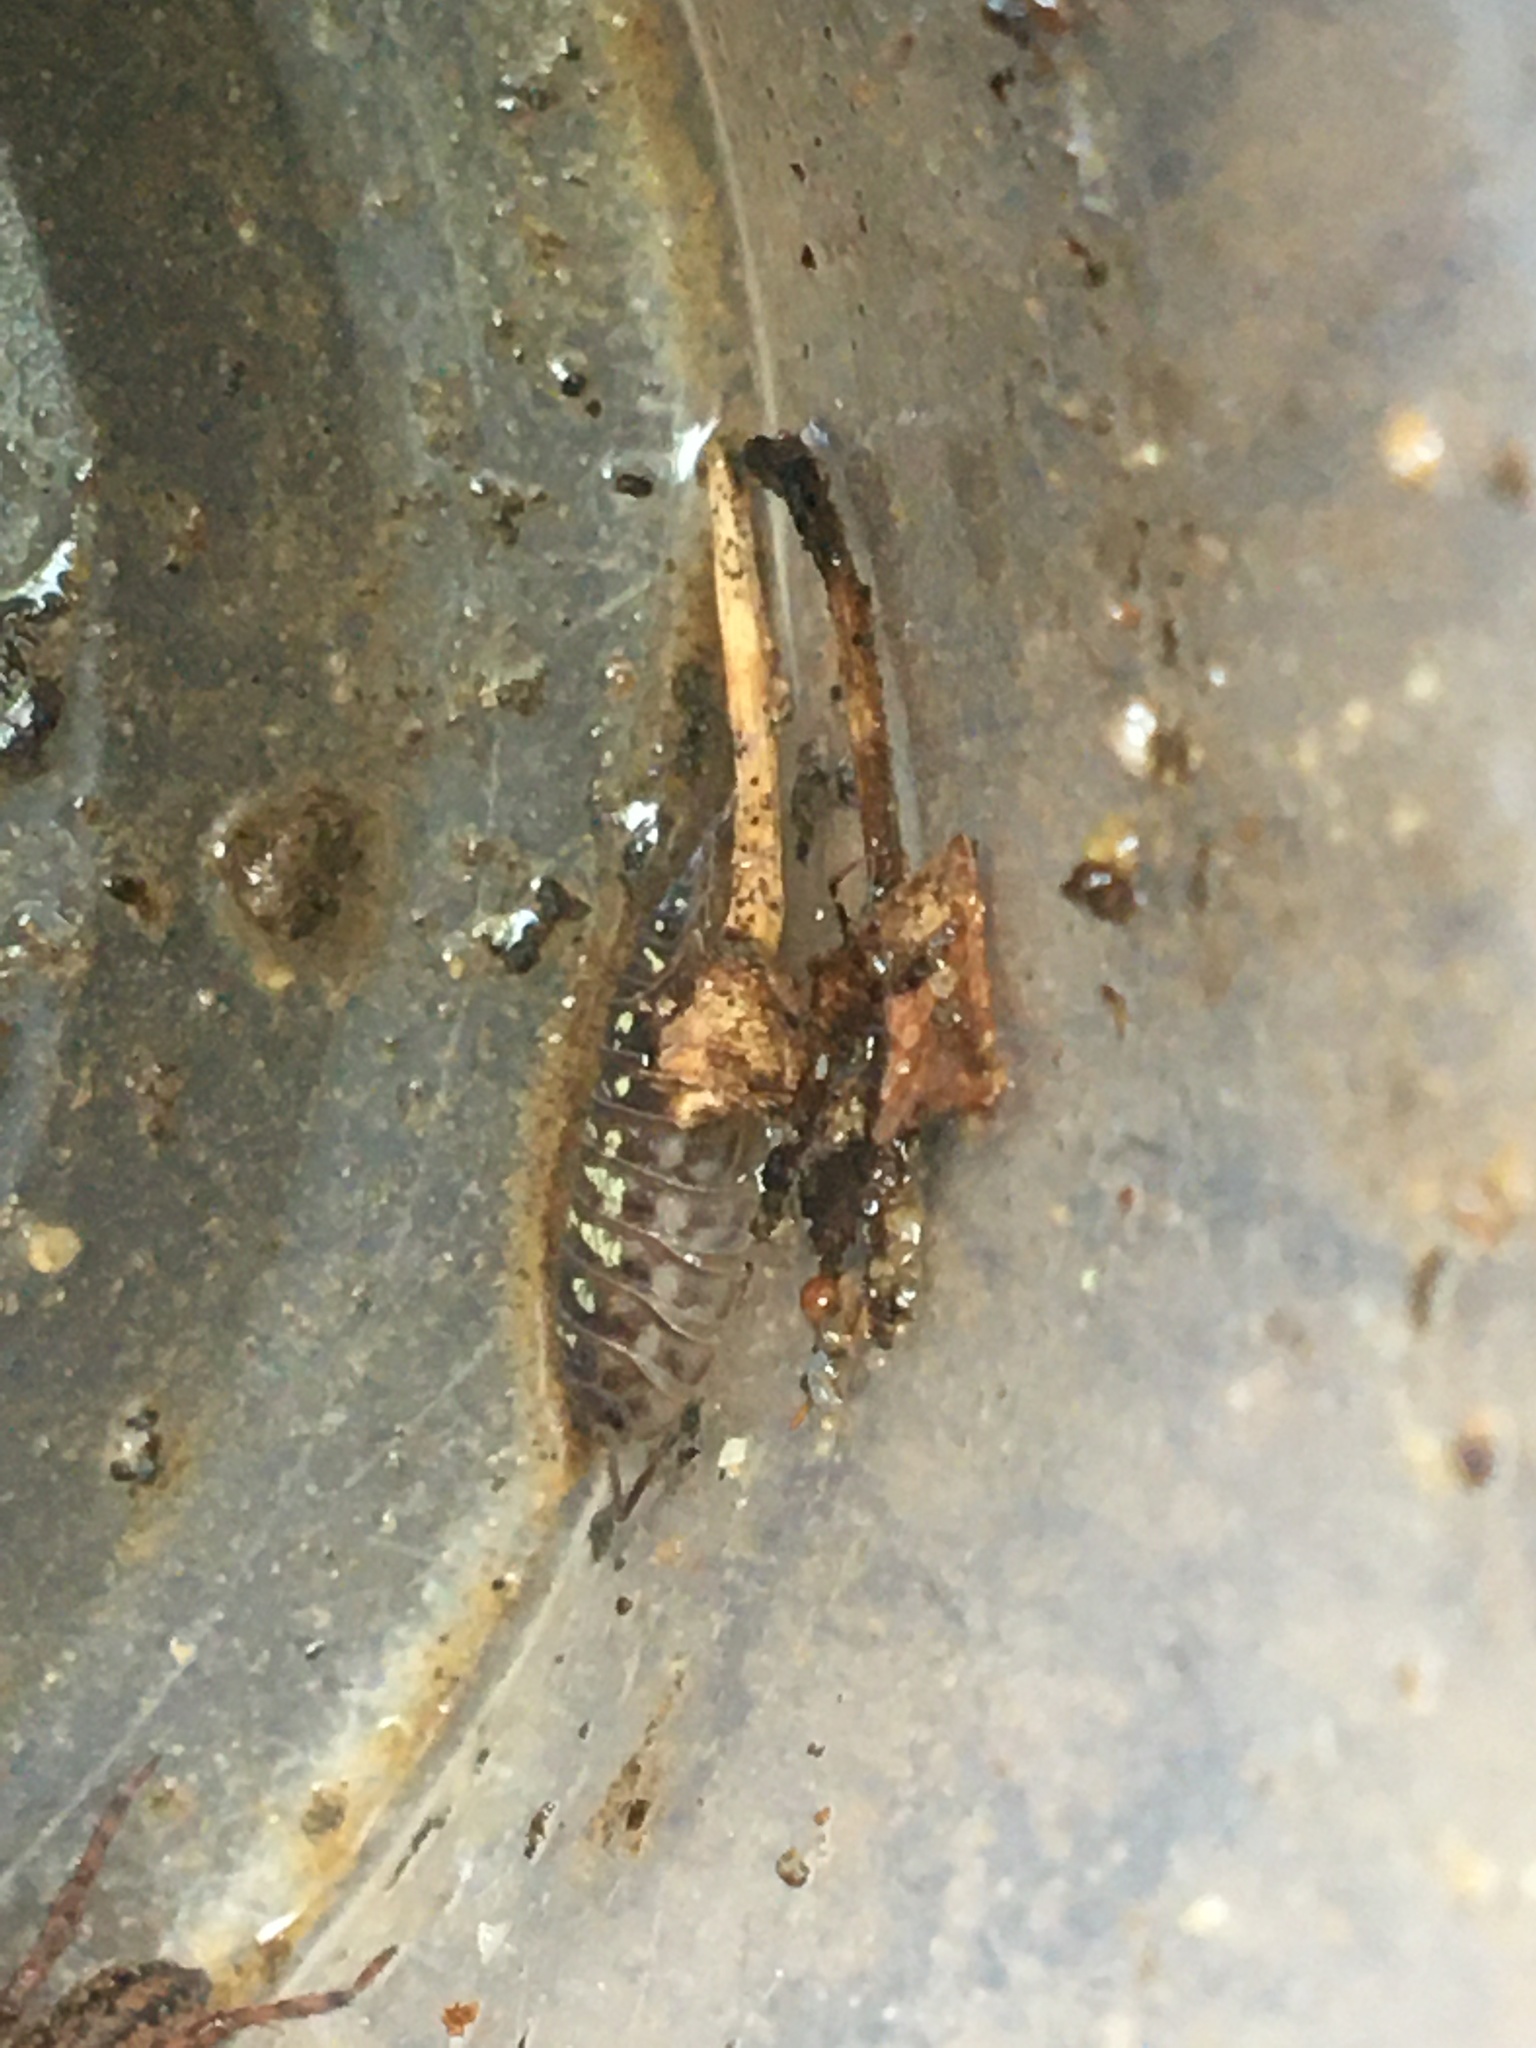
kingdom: Animalia
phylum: Arthropoda
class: Malacostraca
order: Isopoda
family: Oniscidae
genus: Oniscus
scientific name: Oniscus asellus
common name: Common shiny woodlouse
